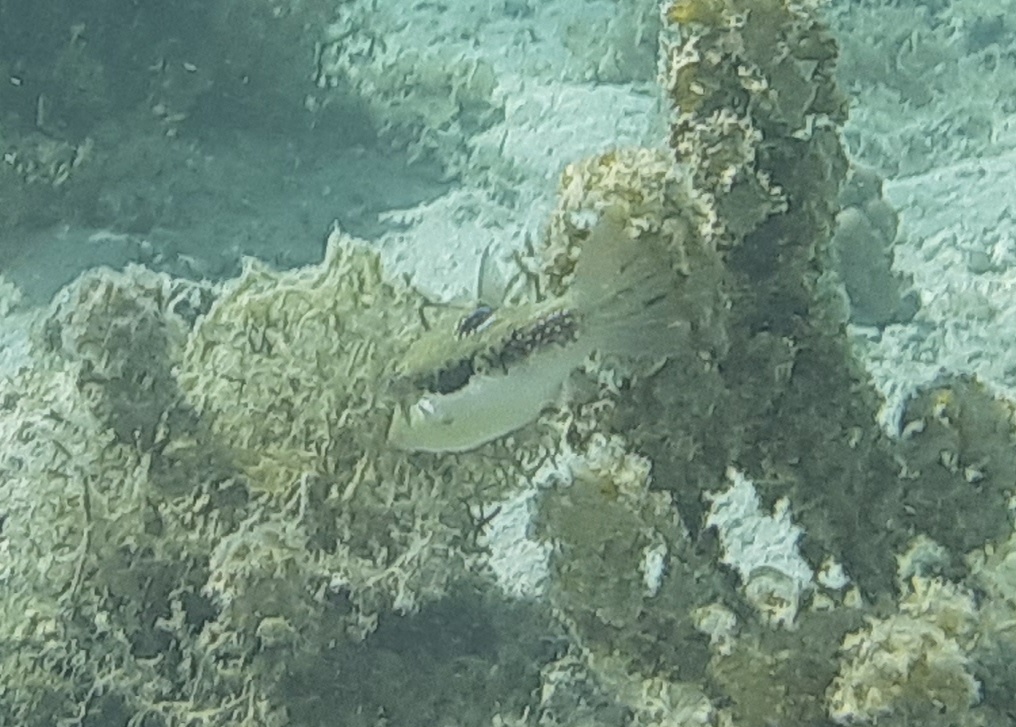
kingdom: Animalia
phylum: Chordata
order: Tetraodontiformes
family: Tetraodontidae
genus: Canthigaster
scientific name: Canthigaster bennetti
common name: Bennett's pufferfish
